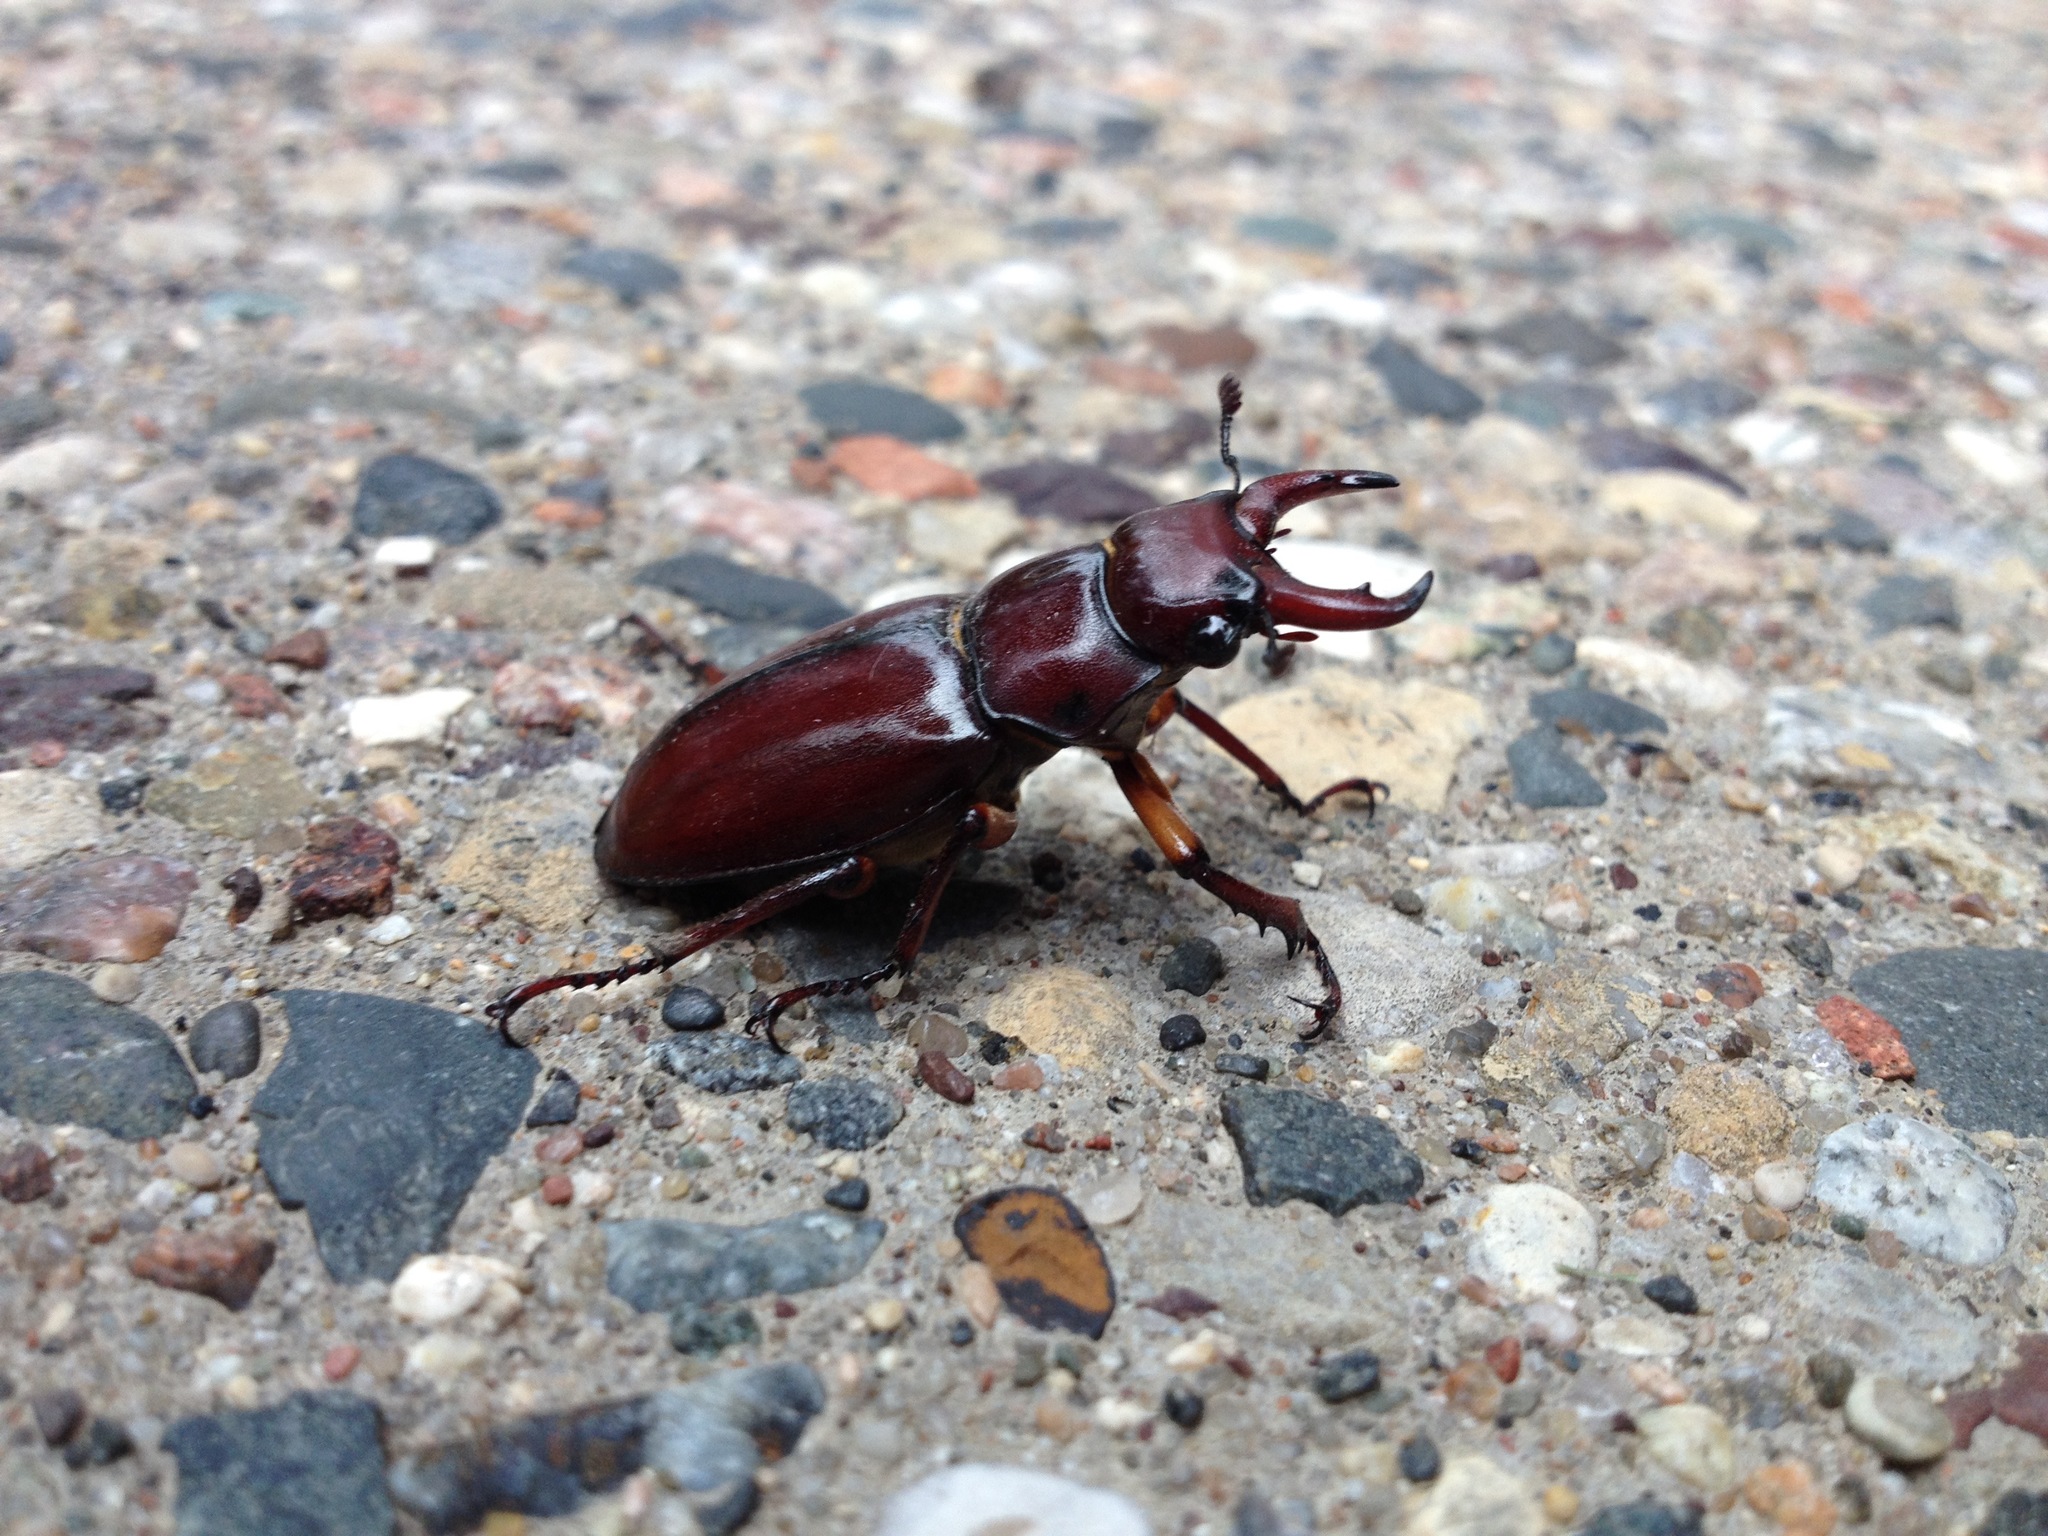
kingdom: Animalia
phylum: Arthropoda
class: Insecta
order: Coleoptera
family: Lucanidae
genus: Lucanus
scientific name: Lucanus capreolus
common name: Stag beetle
